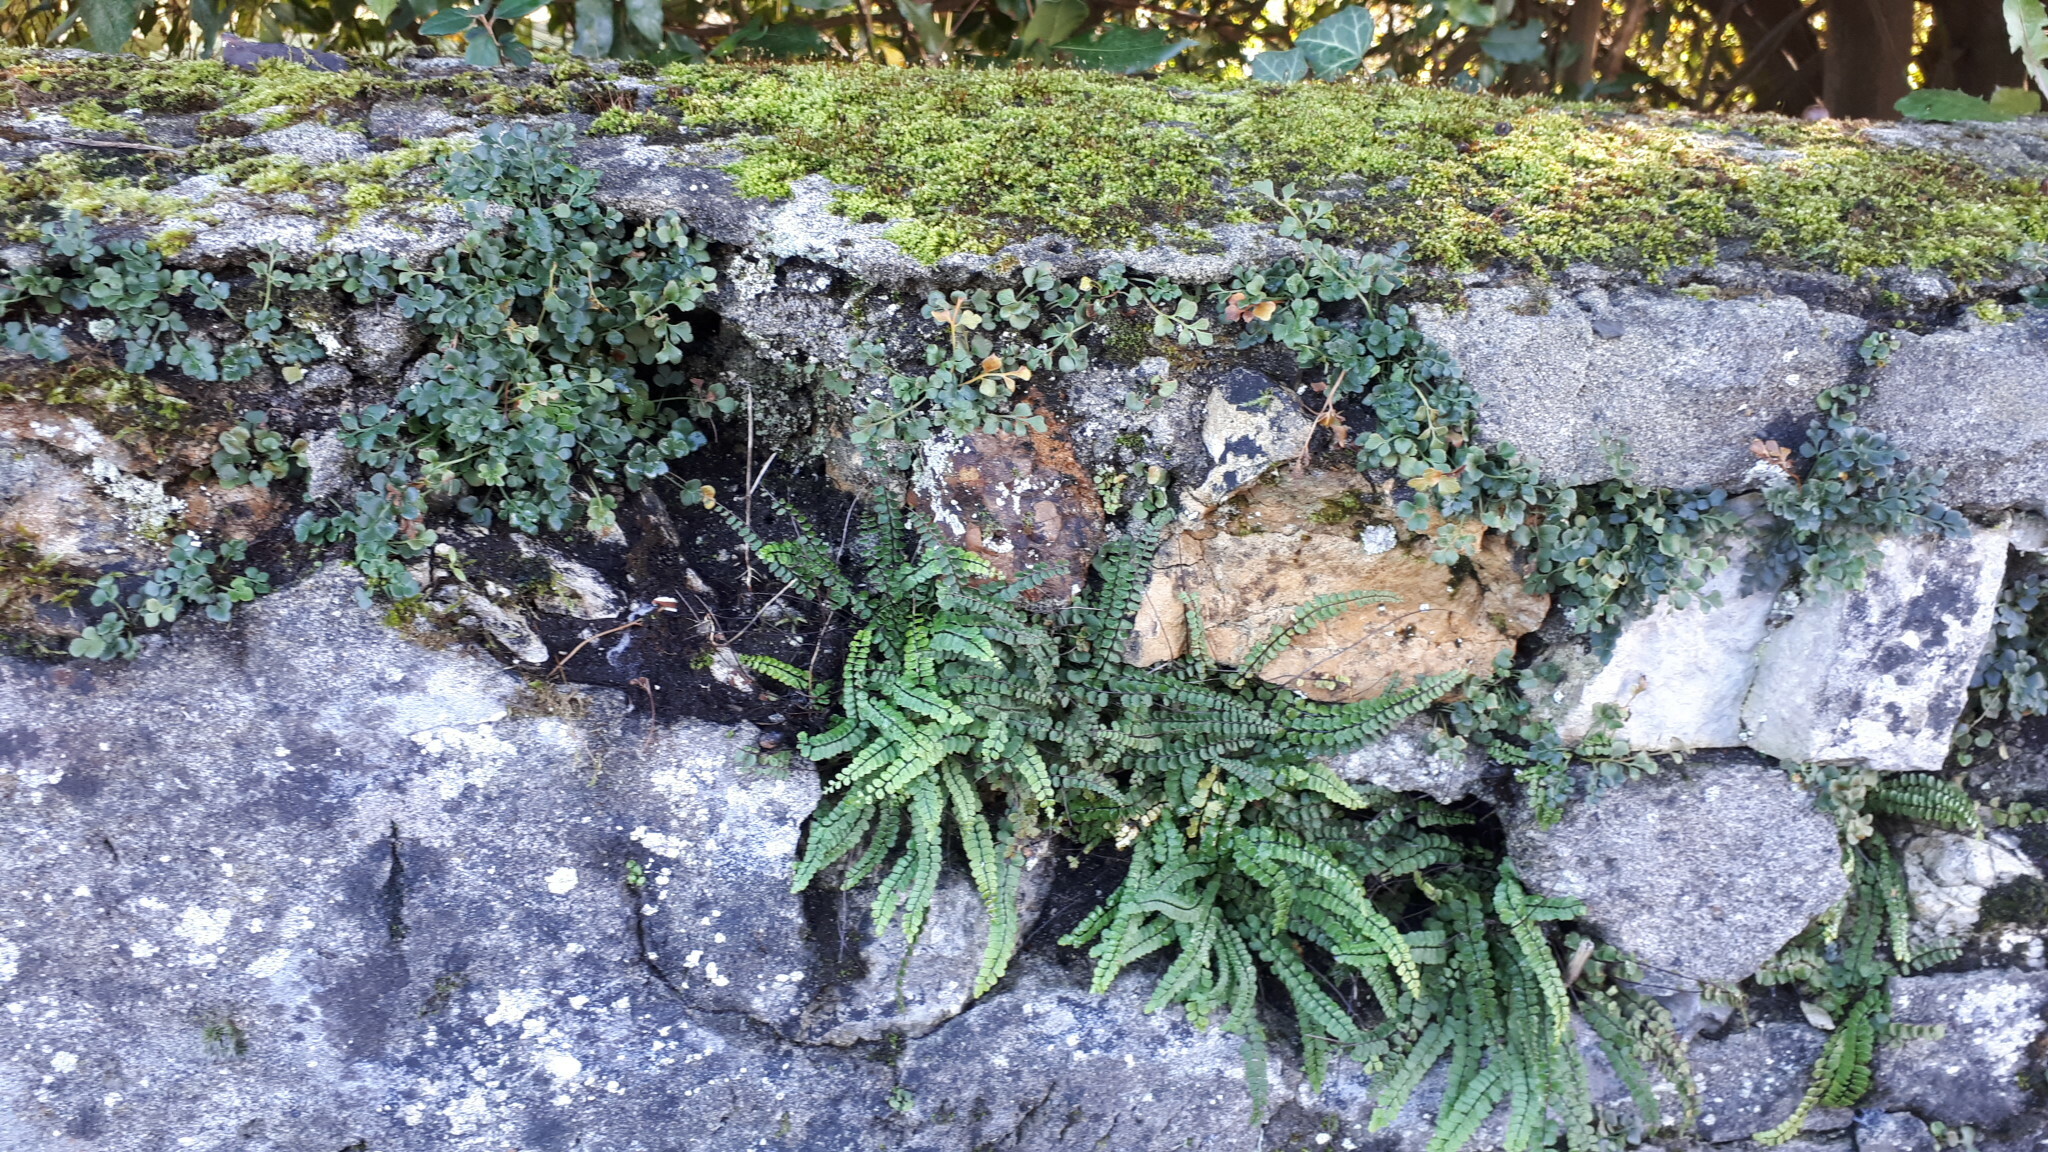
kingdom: Plantae
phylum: Tracheophyta
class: Polypodiopsida
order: Polypodiales
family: Aspleniaceae
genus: Asplenium
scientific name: Asplenium trichomanes
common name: Maidenhair spleenwort
